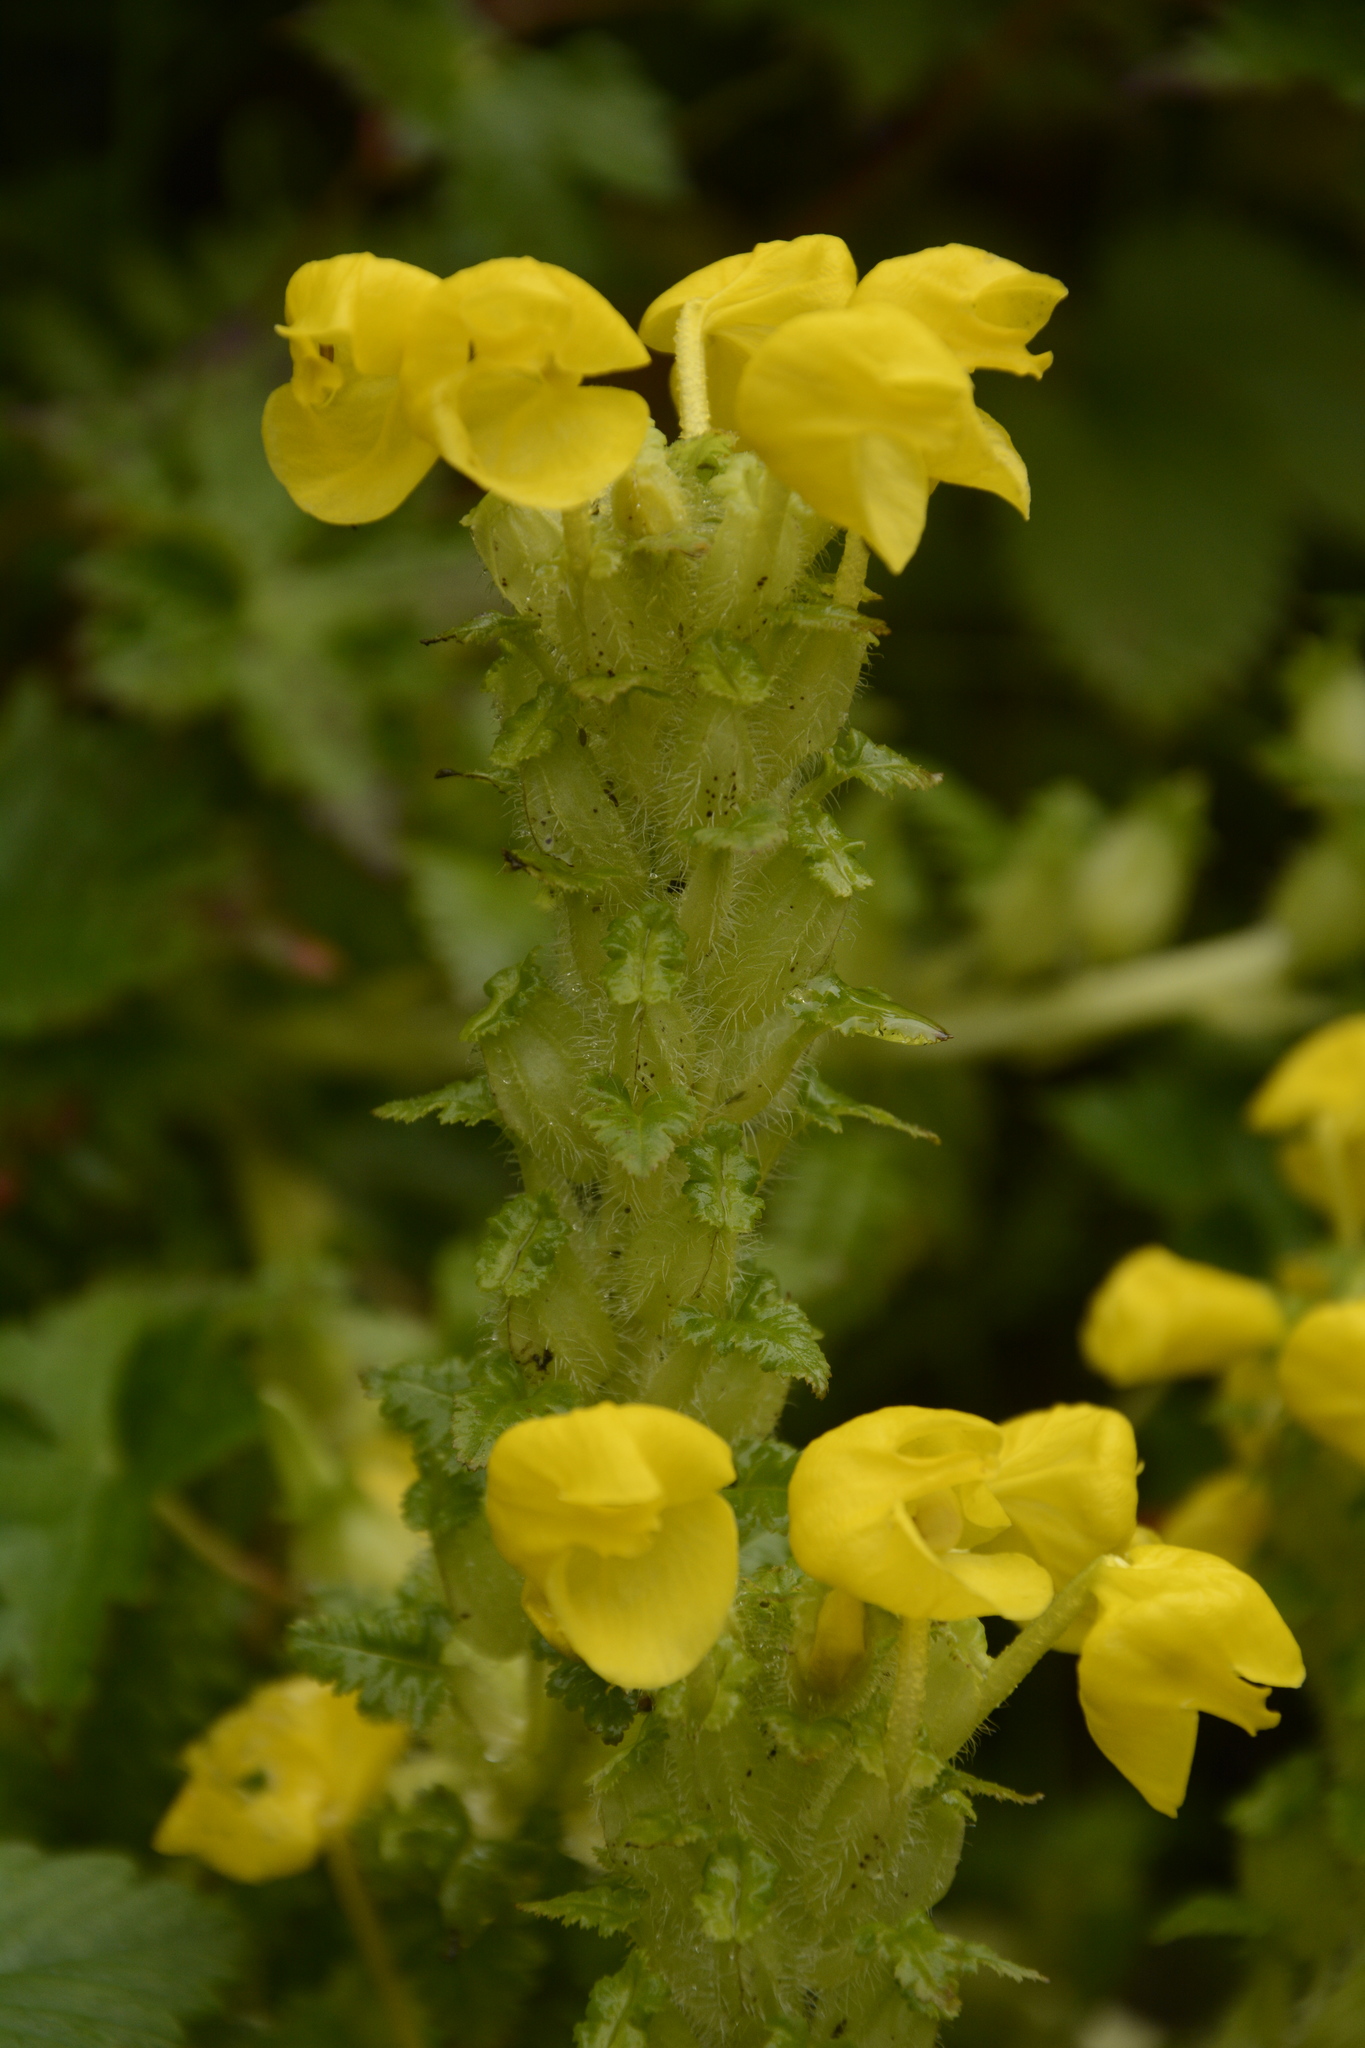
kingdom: Plantae
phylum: Tracheophyta
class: Magnoliopsida
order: Lamiales
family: Orobanchaceae
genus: Pedicularis
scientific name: Pedicularis hoffmeisteri
